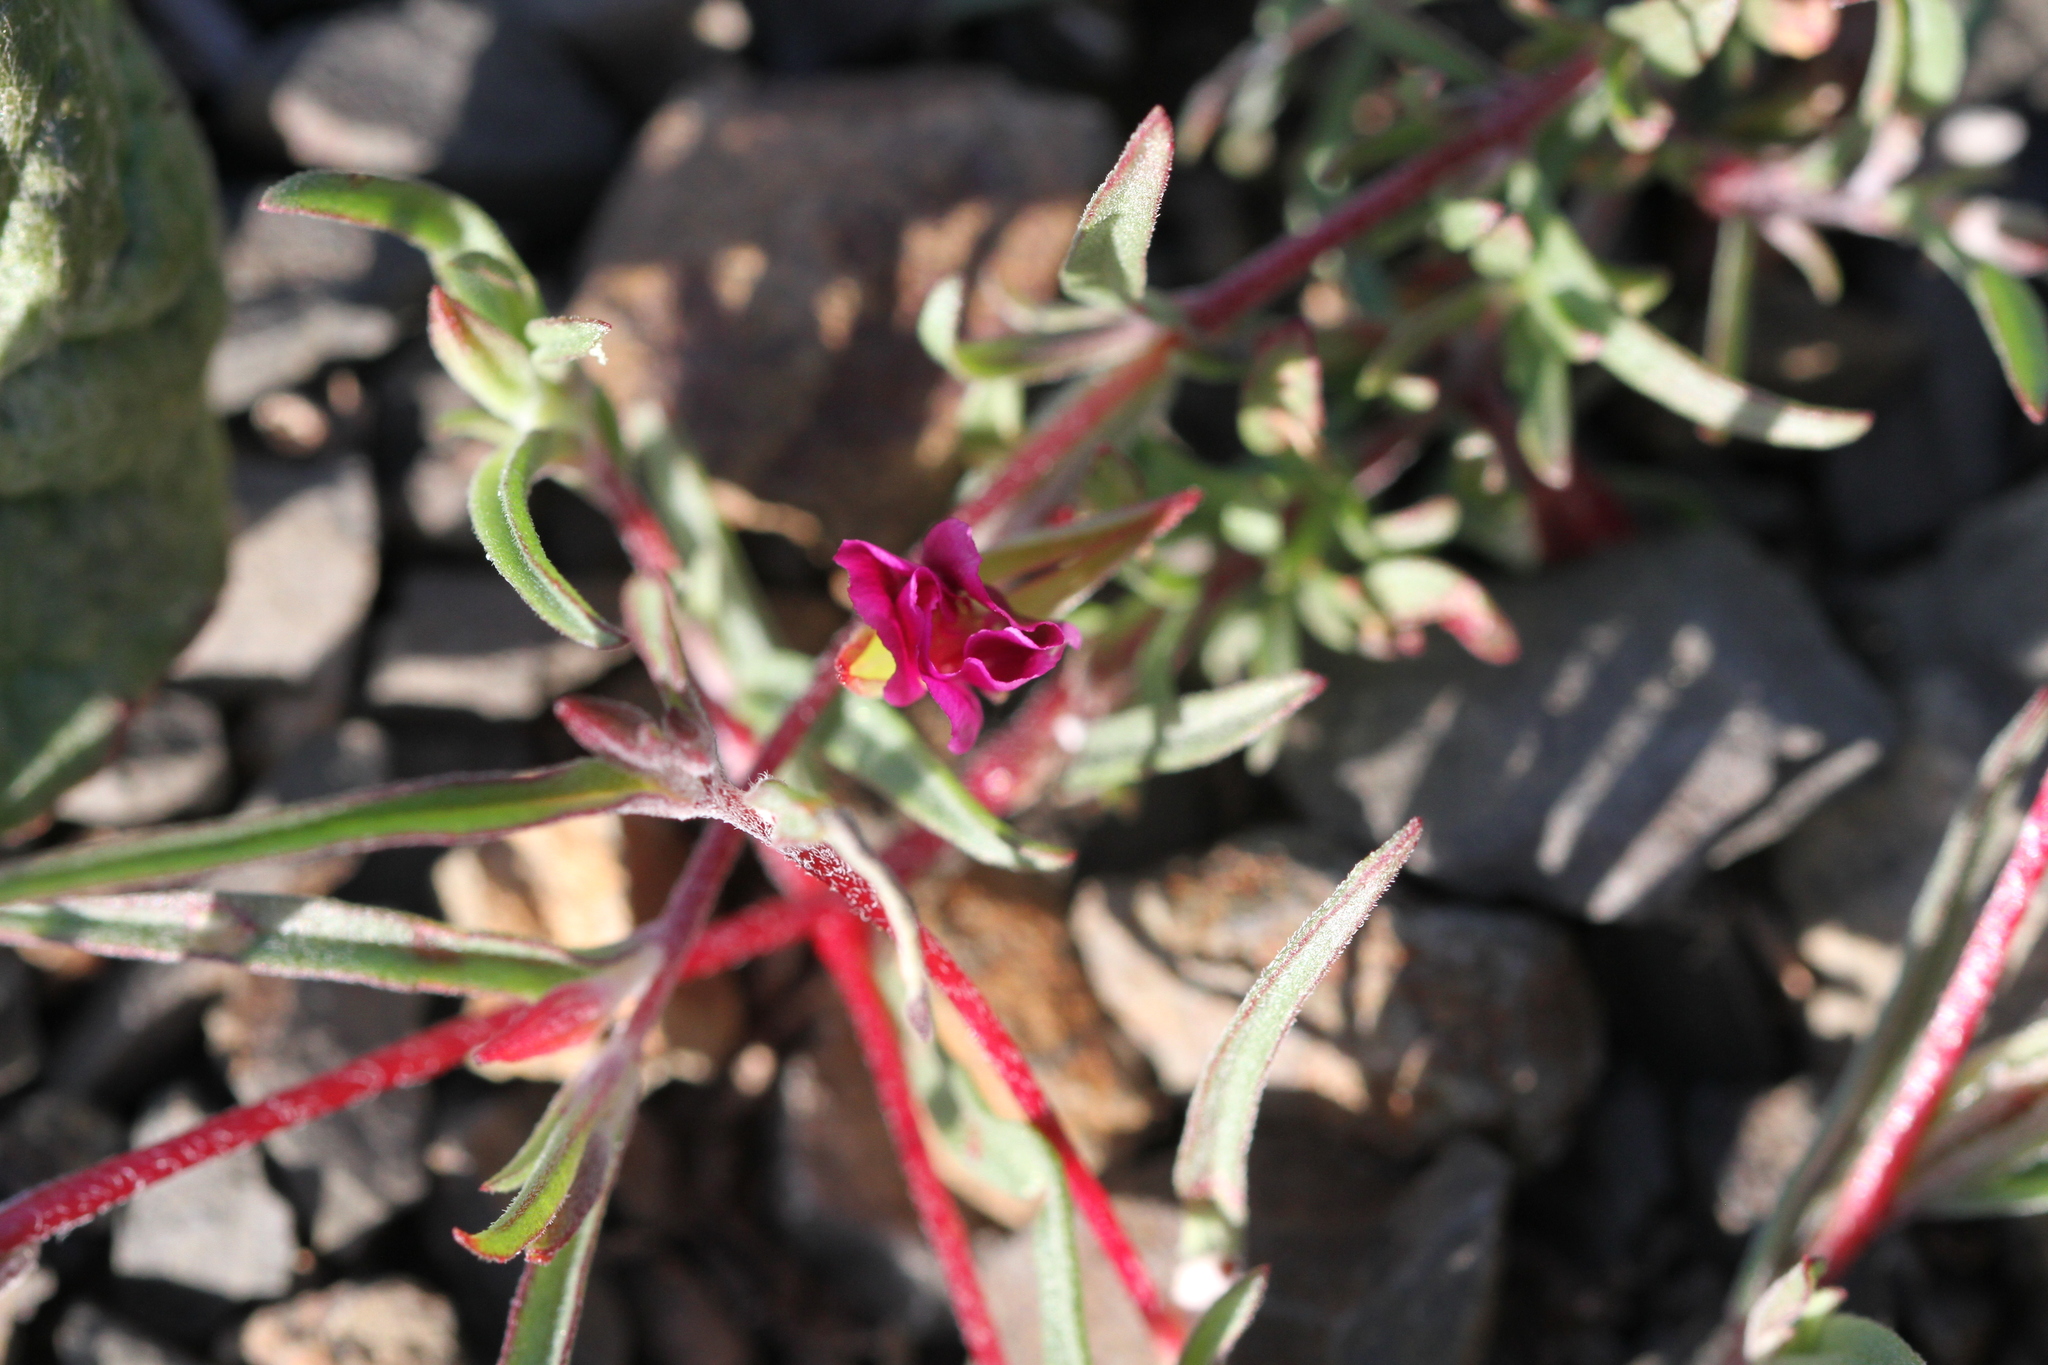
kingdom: Plantae
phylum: Tracheophyta
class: Magnoliopsida
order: Myrtales
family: Onagraceae
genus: Clarkia
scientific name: Clarkia purpurea
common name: Purple clarkia
